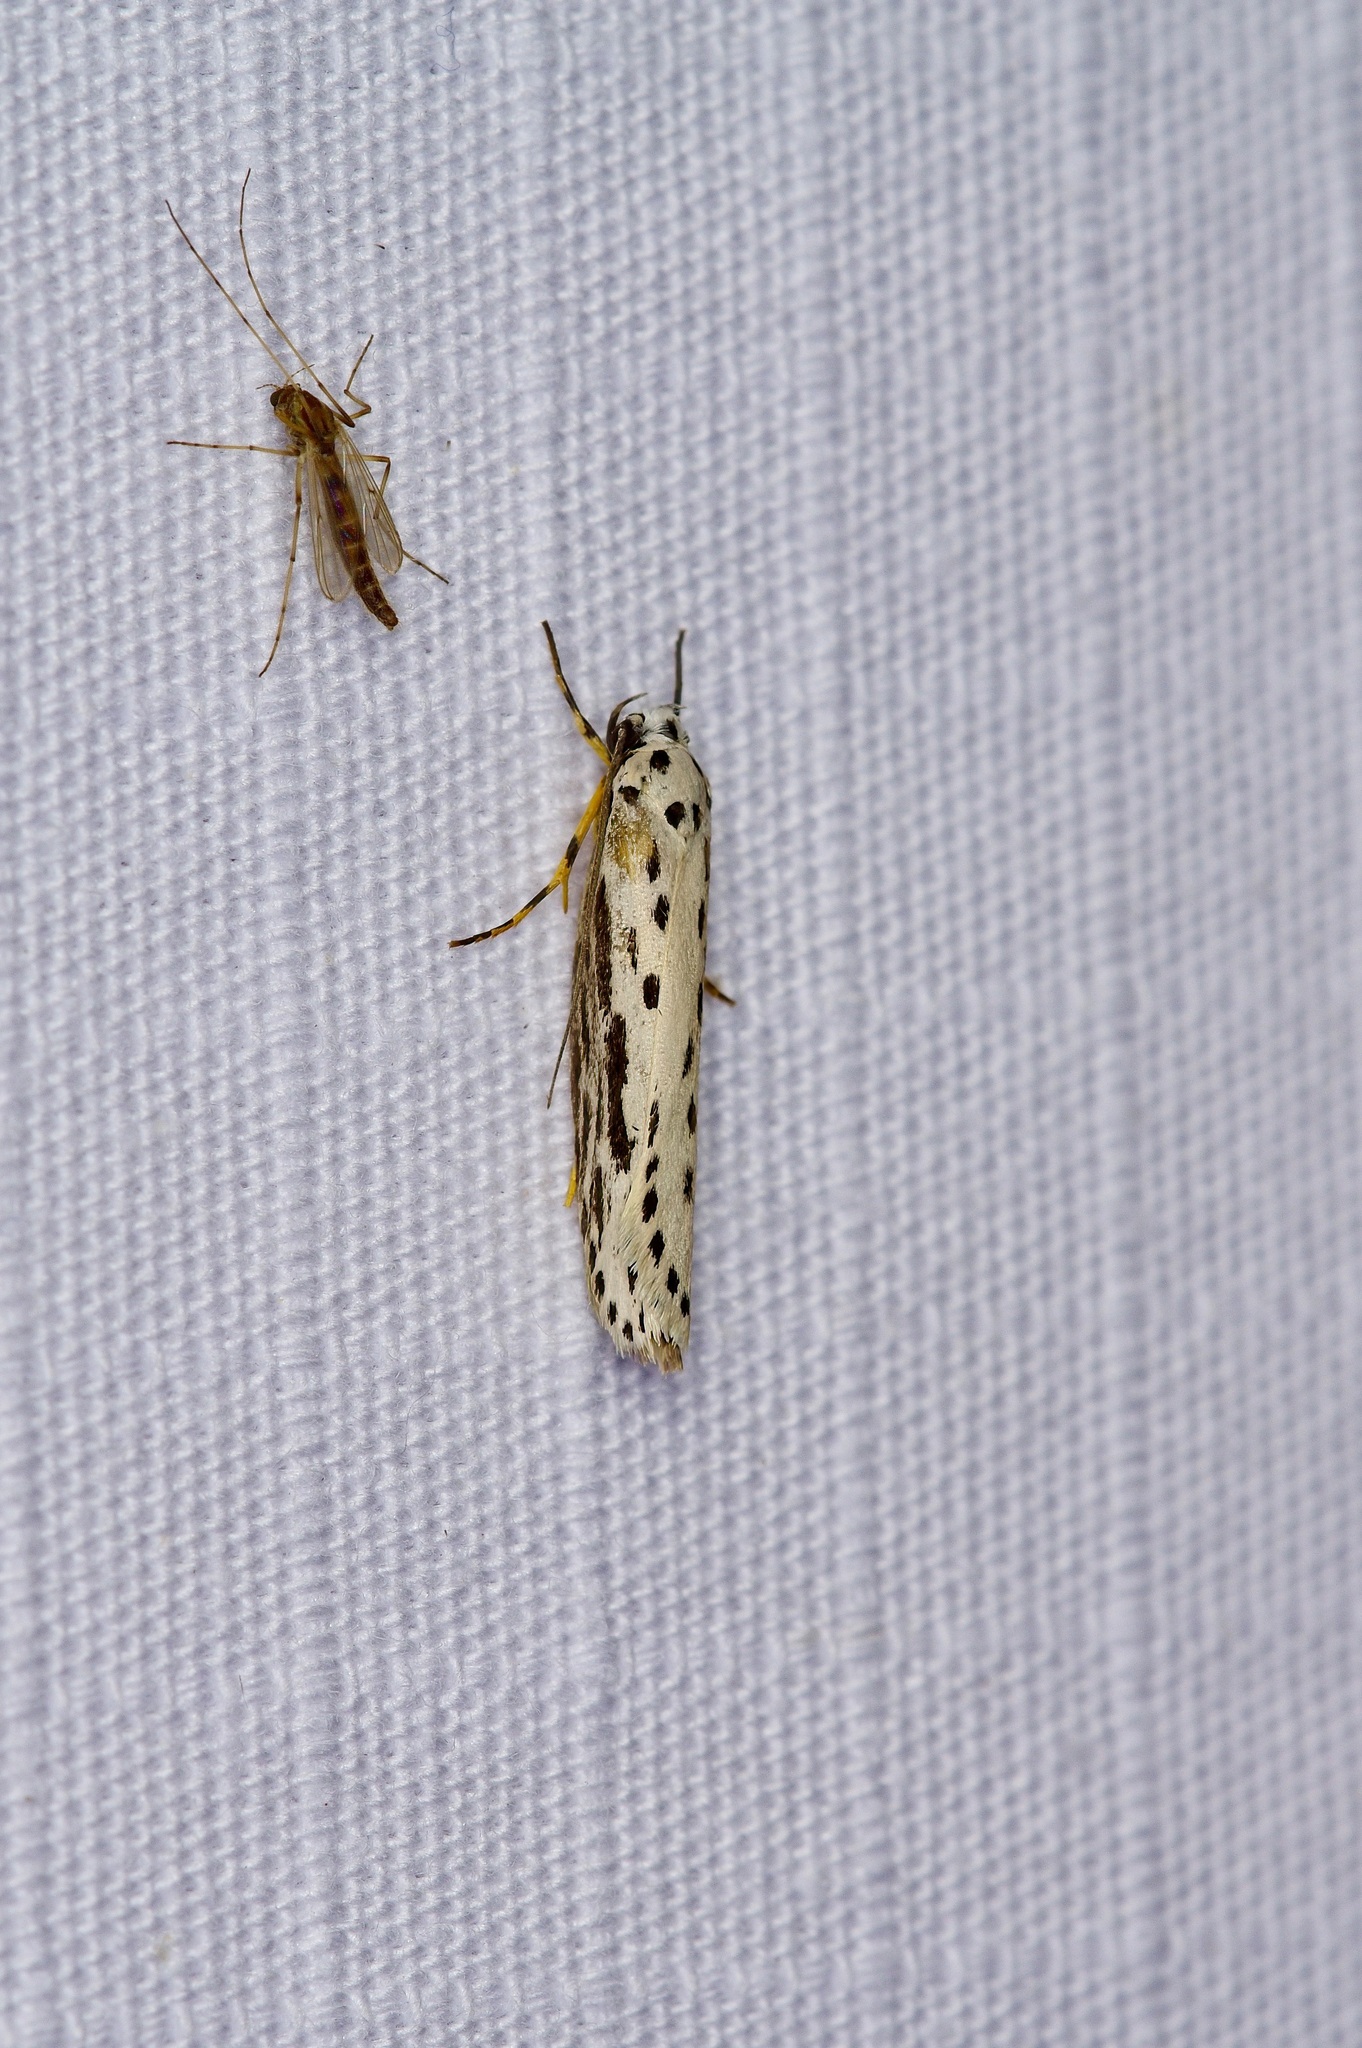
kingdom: Animalia
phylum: Arthropoda
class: Insecta
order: Lepidoptera
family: Ethmiidae
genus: Ethmia
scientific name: Ethmia zelleriella
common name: Zeller's ethmia
